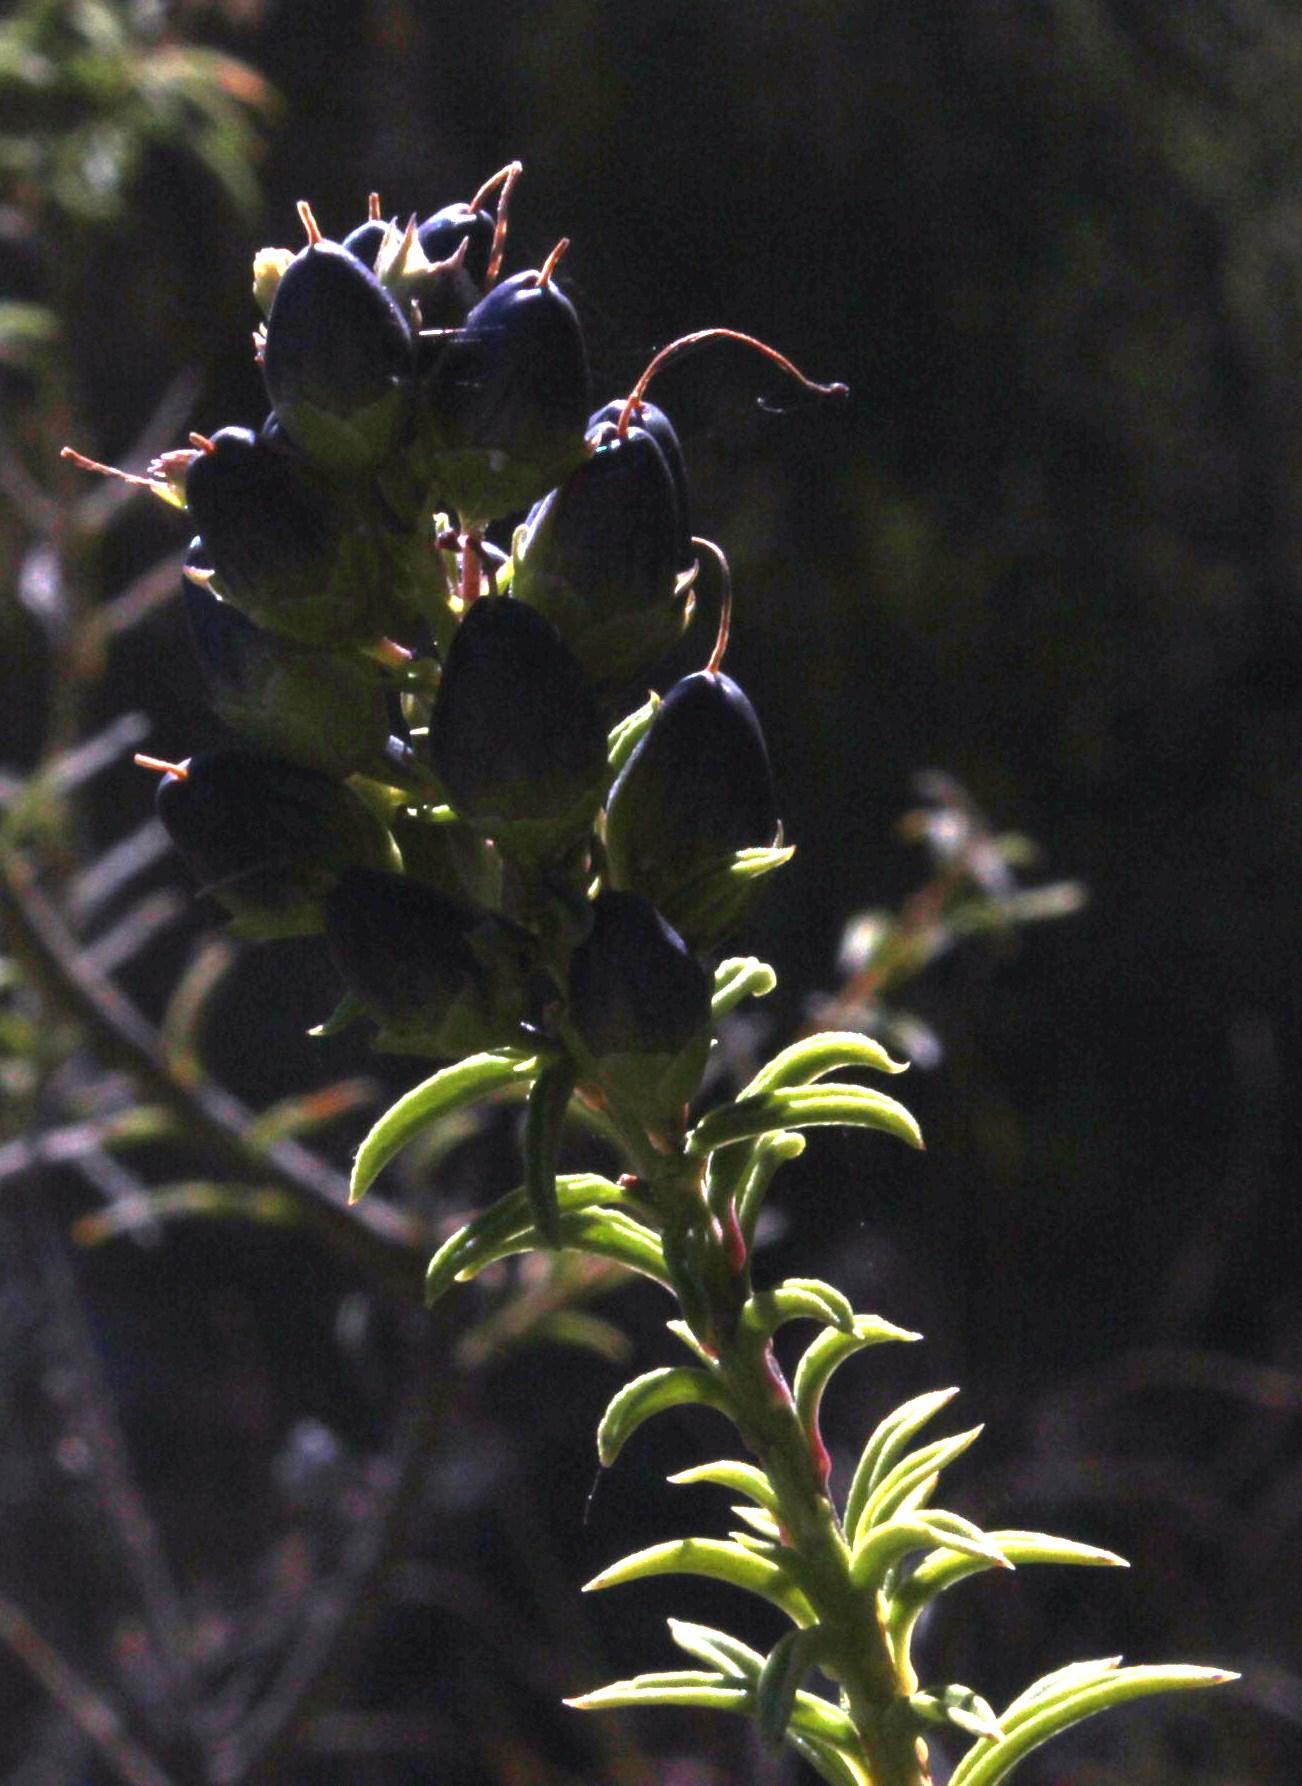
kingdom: Plantae
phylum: Tracheophyta
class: Magnoliopsida
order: Lamiales
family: Scrophulariaceae
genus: Freylinia
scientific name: Freylinia densiflora
